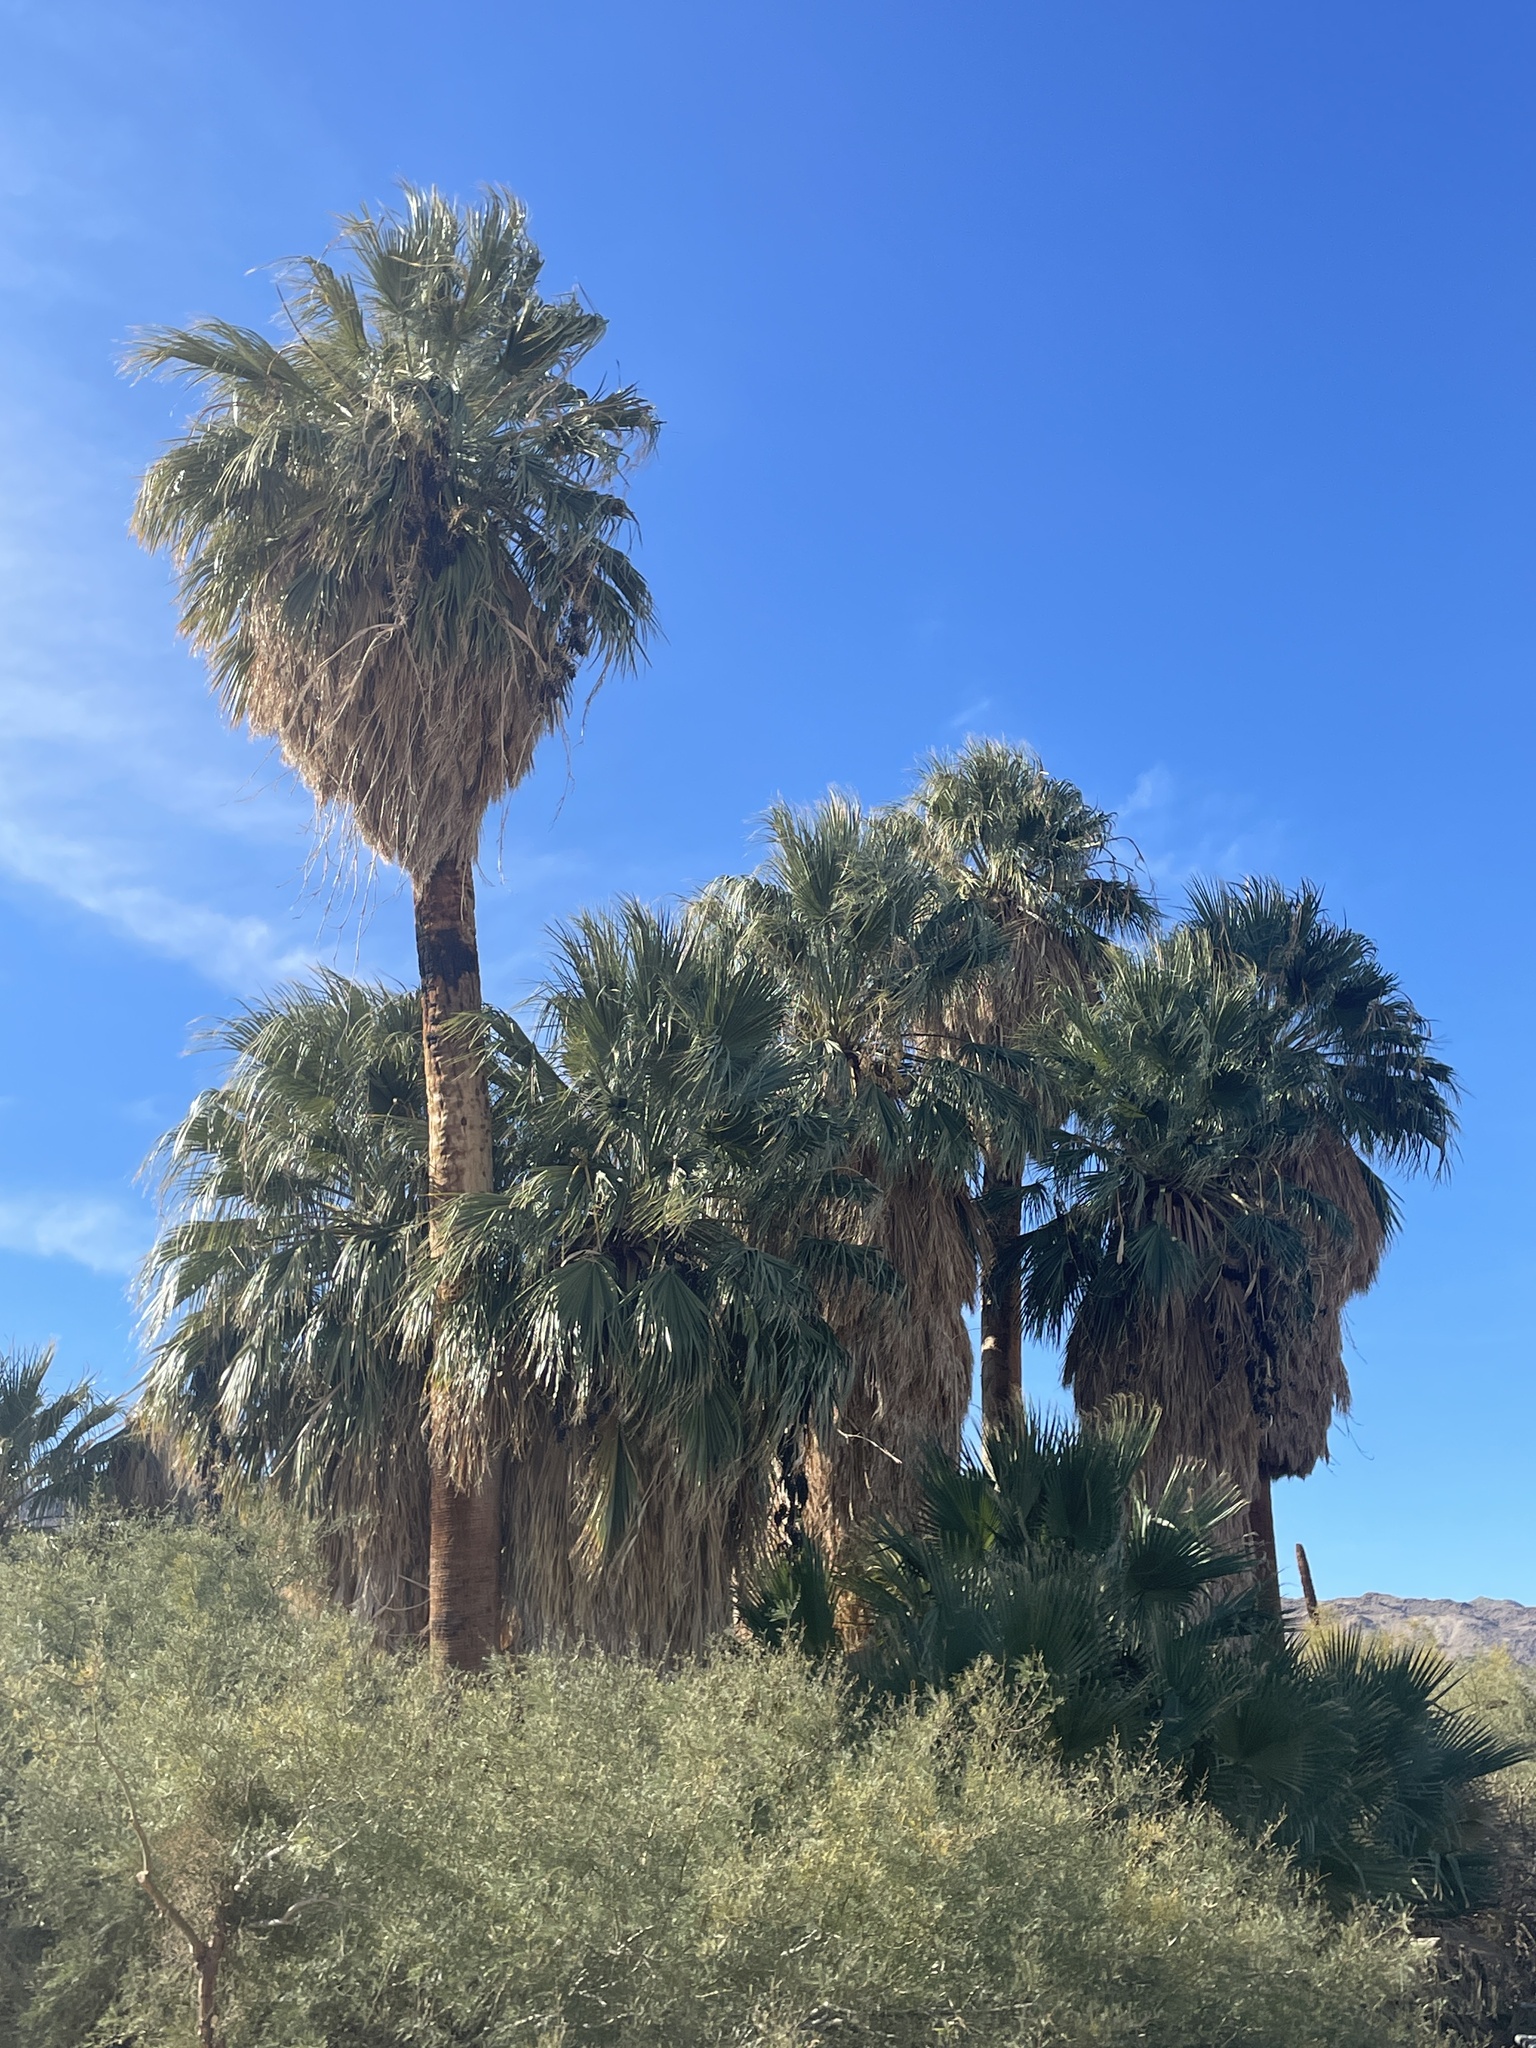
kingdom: Plantae
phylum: Tracheophyta
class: Liliopsida
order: Arecales
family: Arecaceae
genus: Washingtonia
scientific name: Washingtonia filifera
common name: California fan palm
